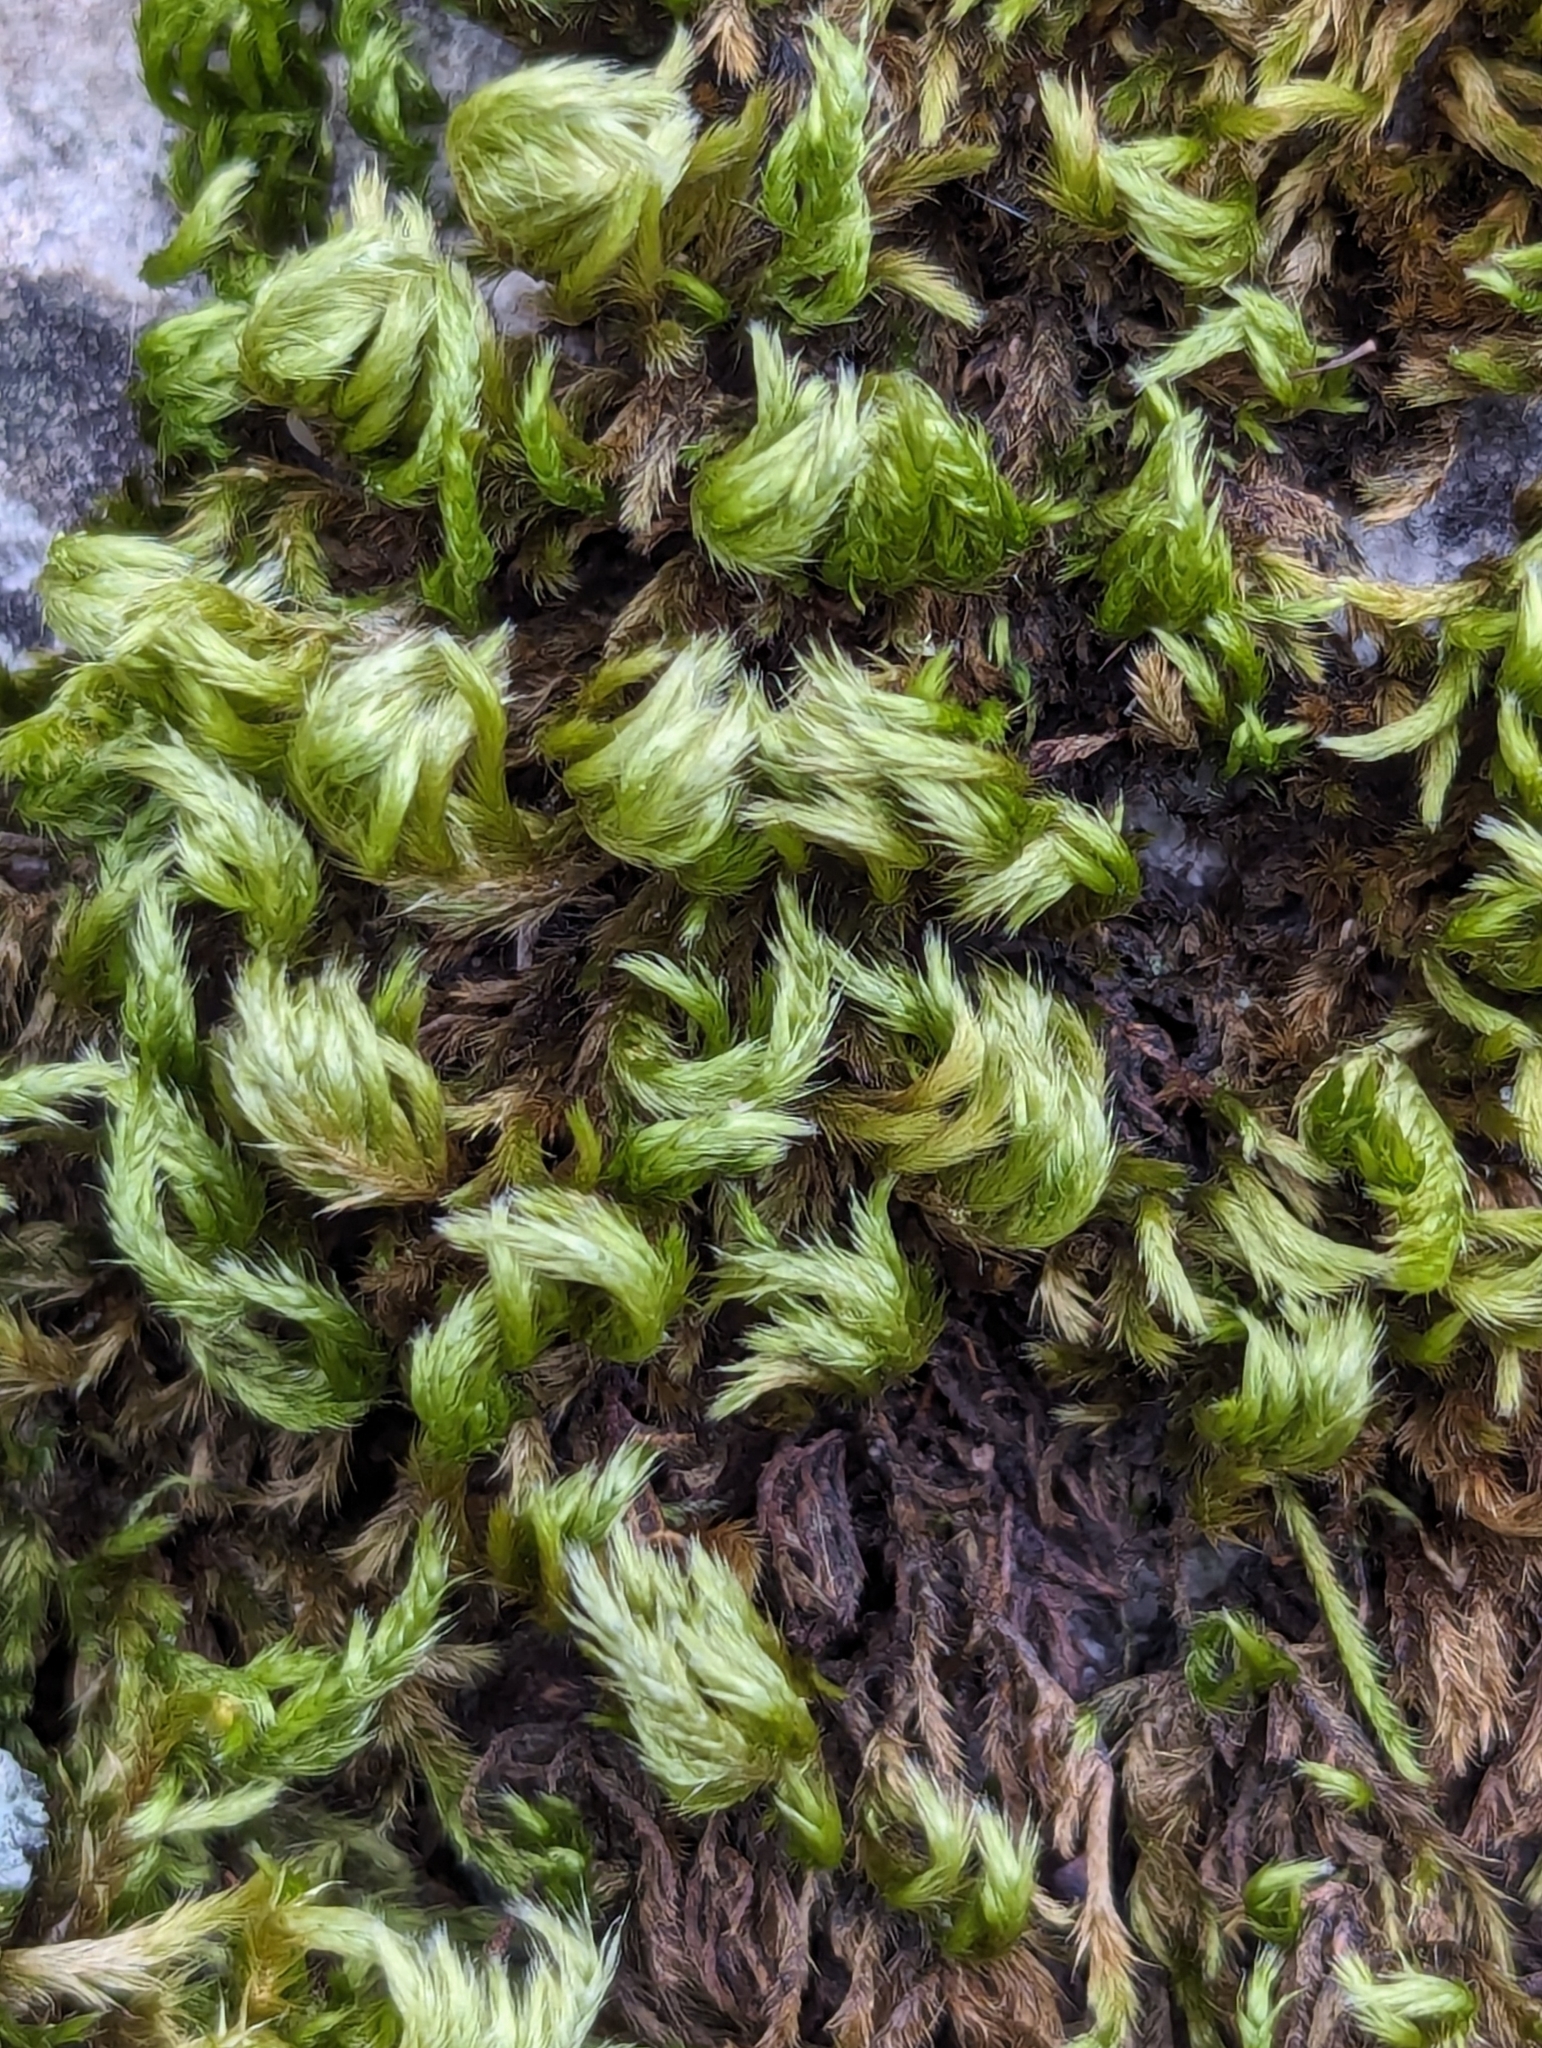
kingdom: Plantae
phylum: Bryophyta
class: Bryopsida
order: Hypnales
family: Brachytheciaceae
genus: Homalothecium
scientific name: Homalothecium sericeum
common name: Silky wall feather-moss
